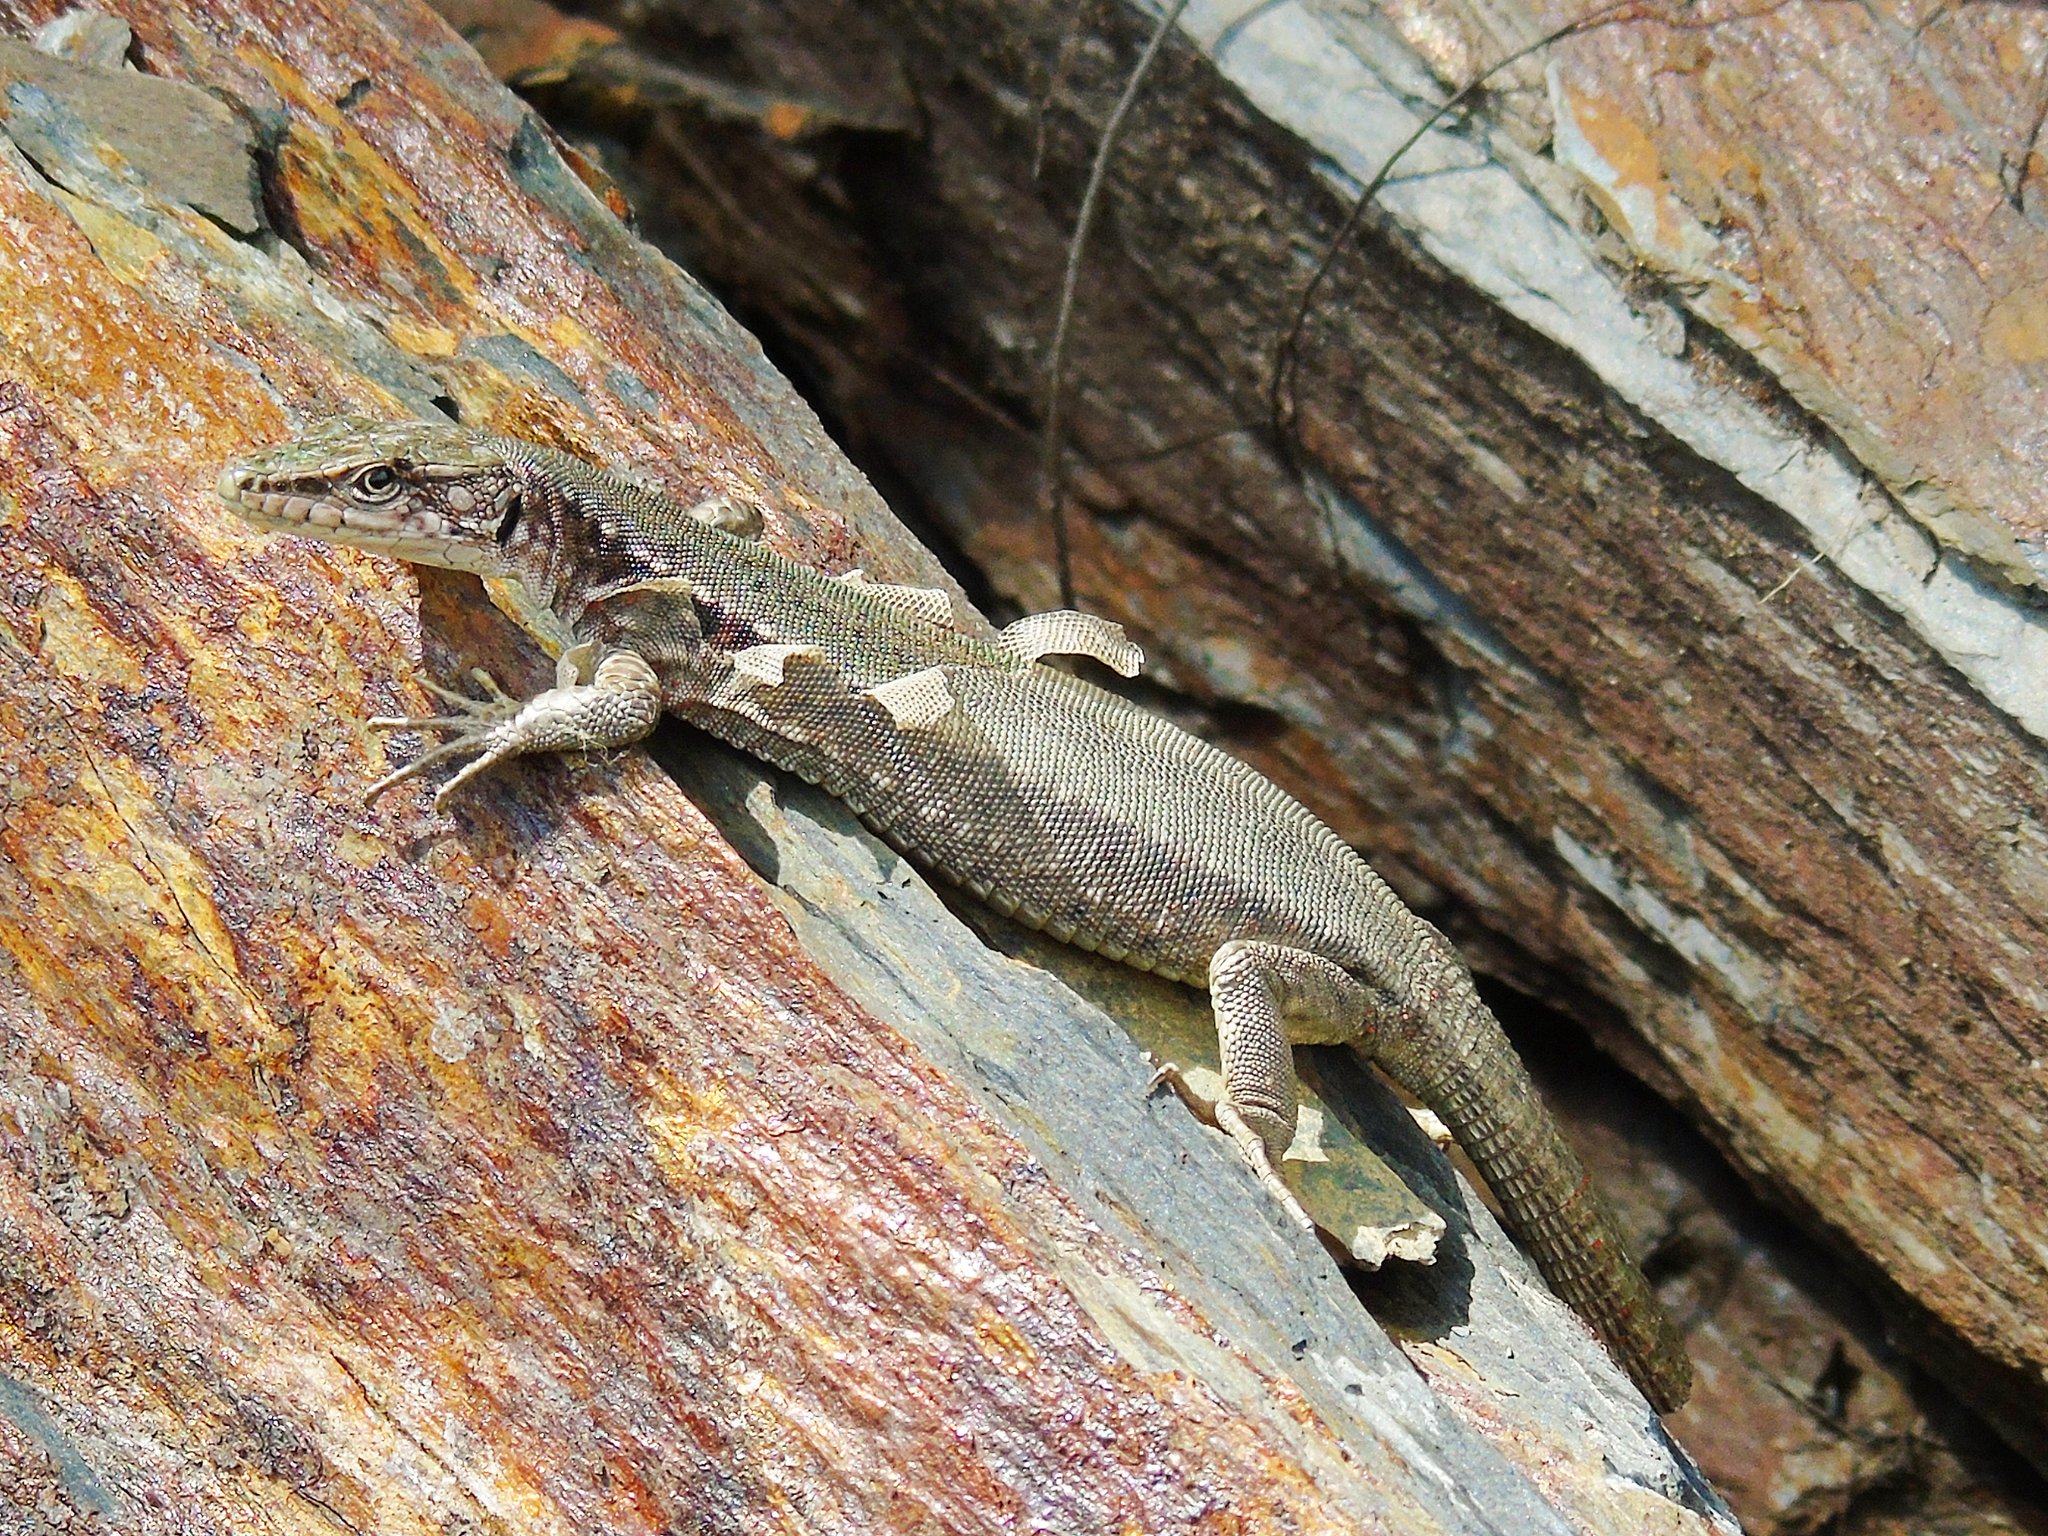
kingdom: Animalia
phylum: Chordata
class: Squamata
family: Lacertidae
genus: Darevskia
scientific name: Darevskia brauneri
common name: Brauner's rock lizard
